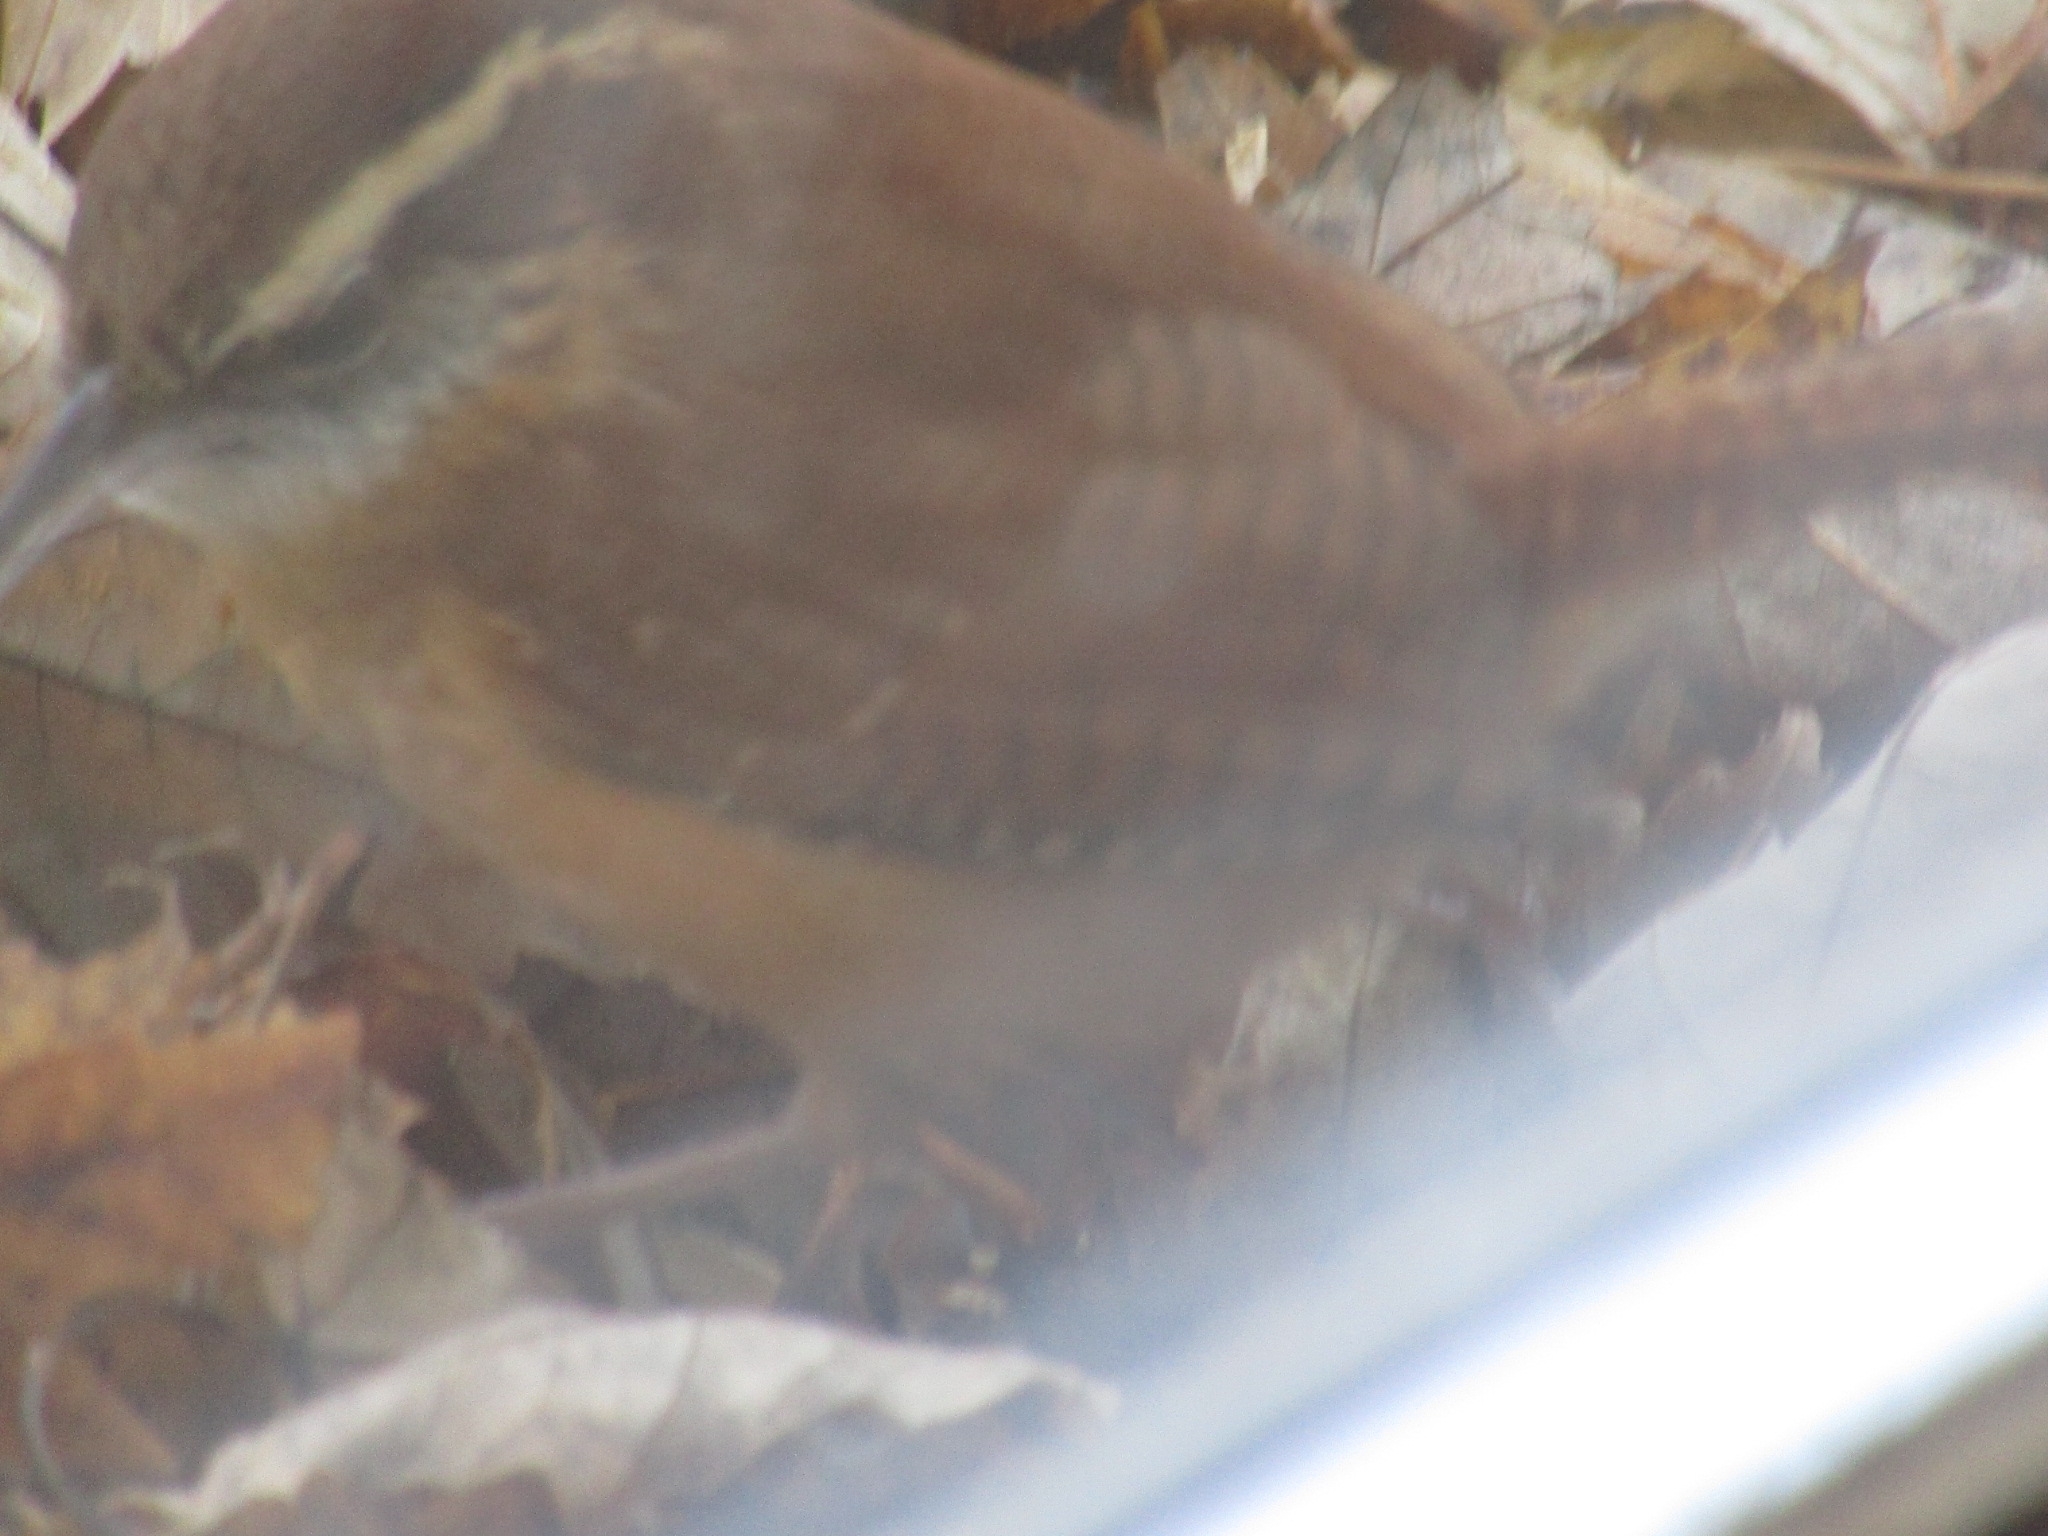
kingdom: Animalia
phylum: Chordata
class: Aves
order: Passeriformes
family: Troglodytidae
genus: Thryothorus
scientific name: Thryothorus ludovicianus
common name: Carolina wren
